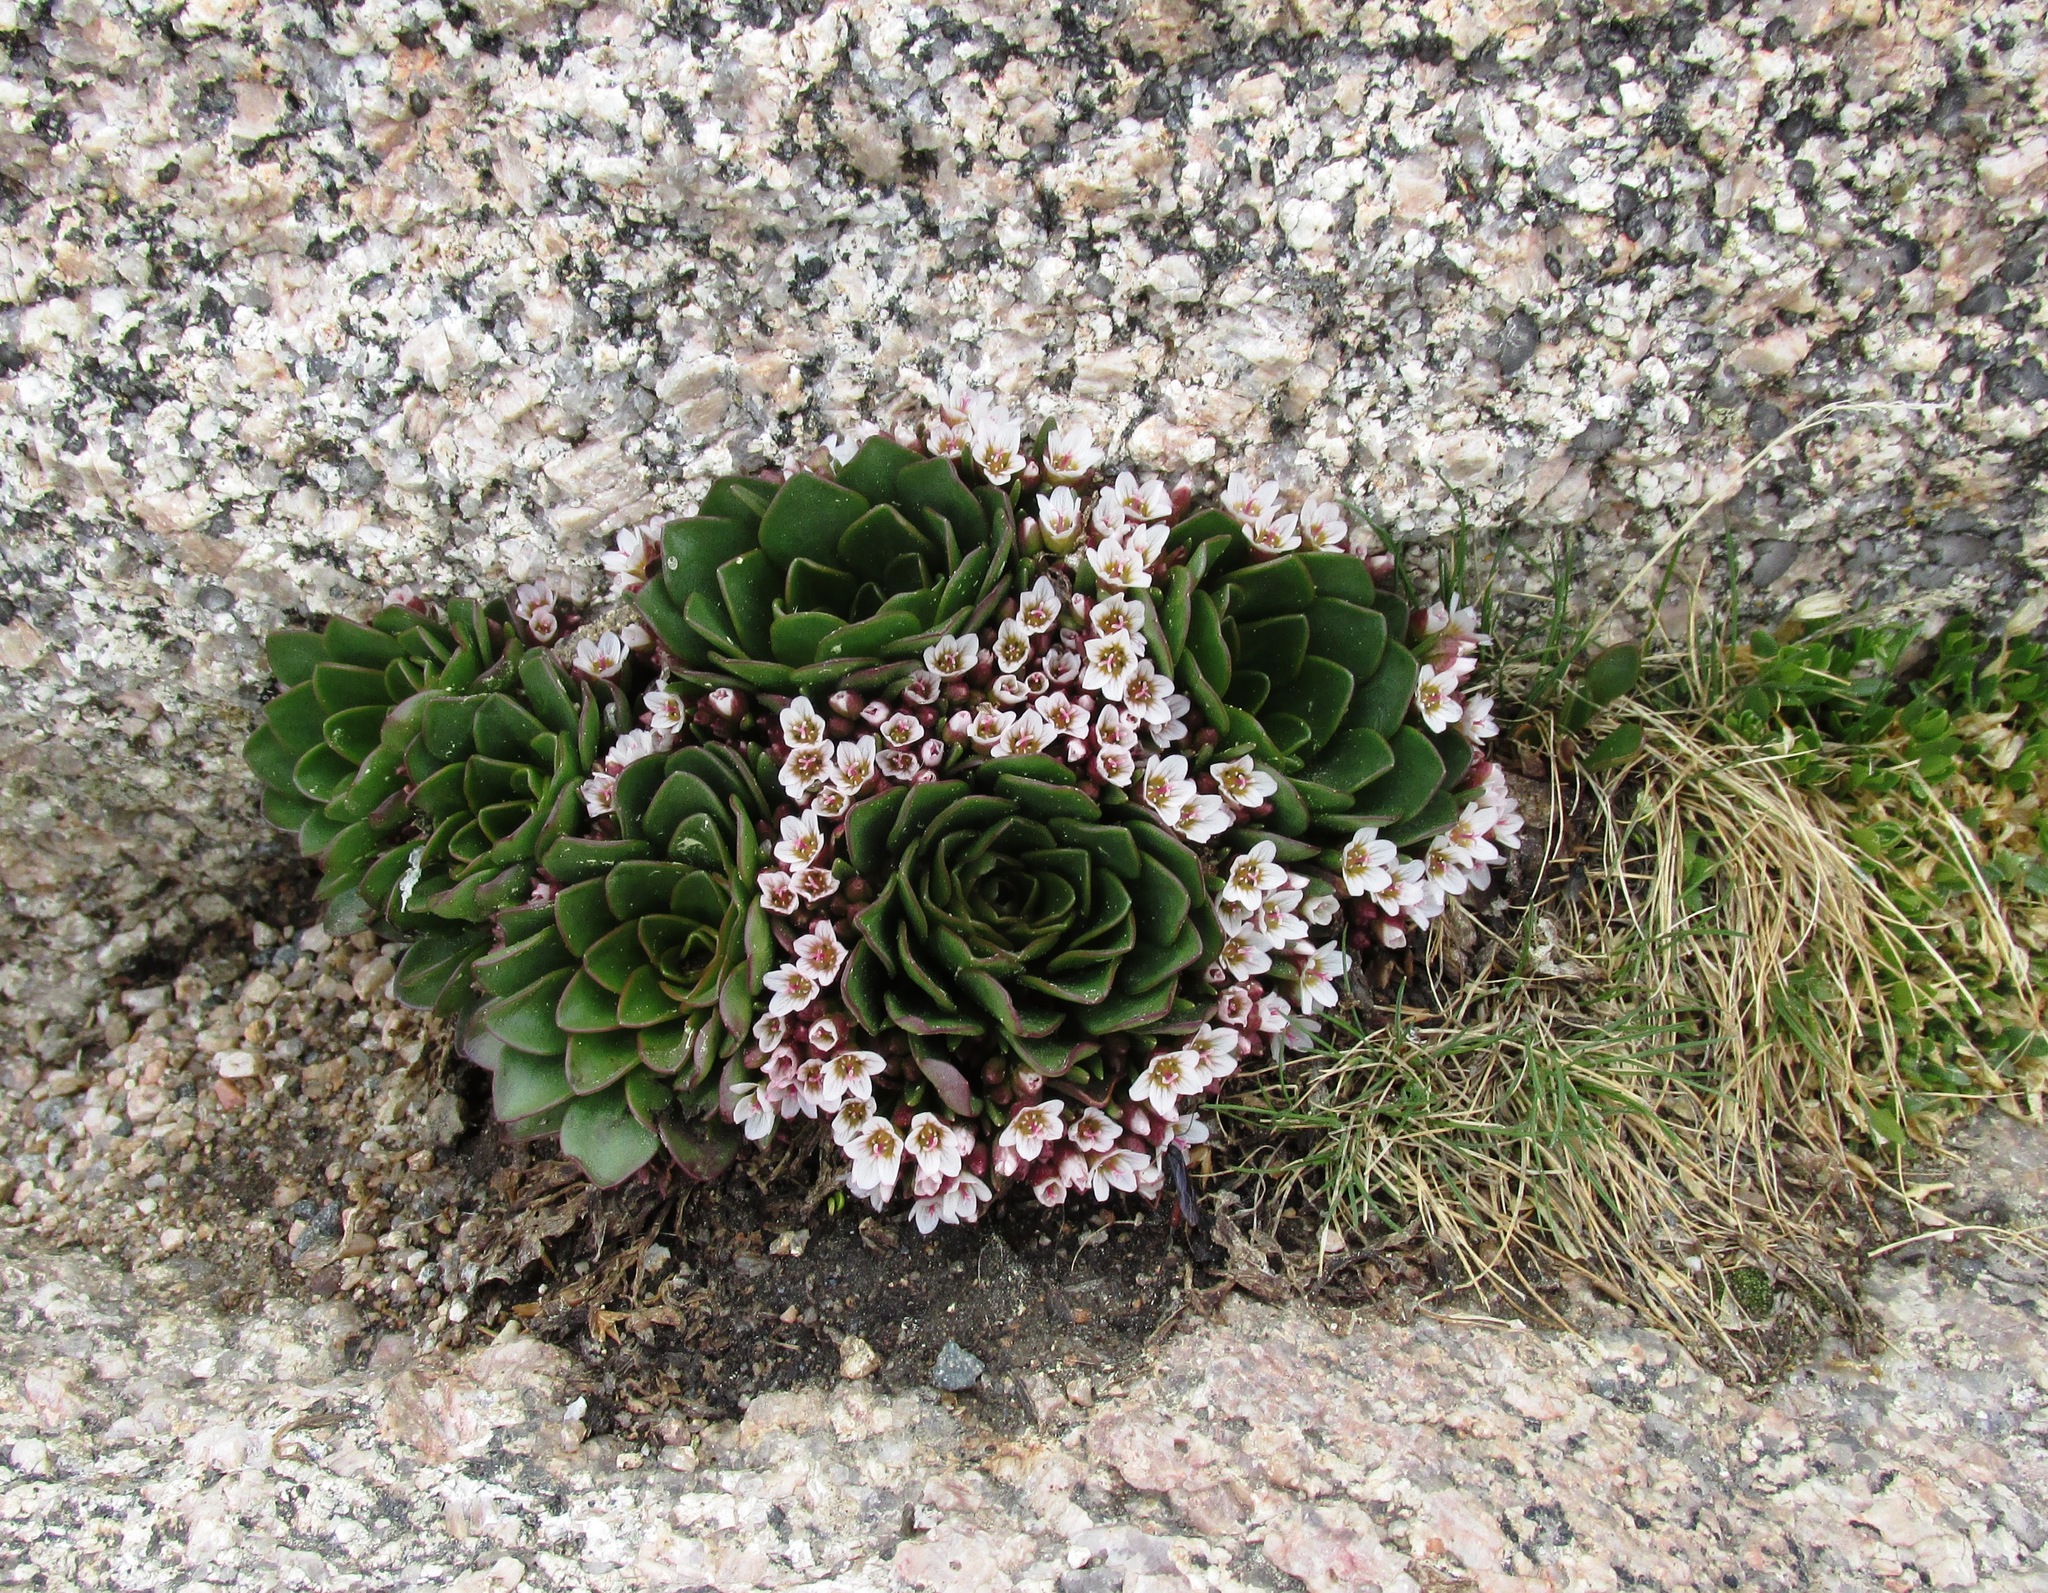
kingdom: Plantae
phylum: Tracheophyta
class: Magnoliopsida
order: Caryophyllales
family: Montiaceae
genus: Claytonia
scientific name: Claytonia megarhiza
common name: Alpine spring beauty
